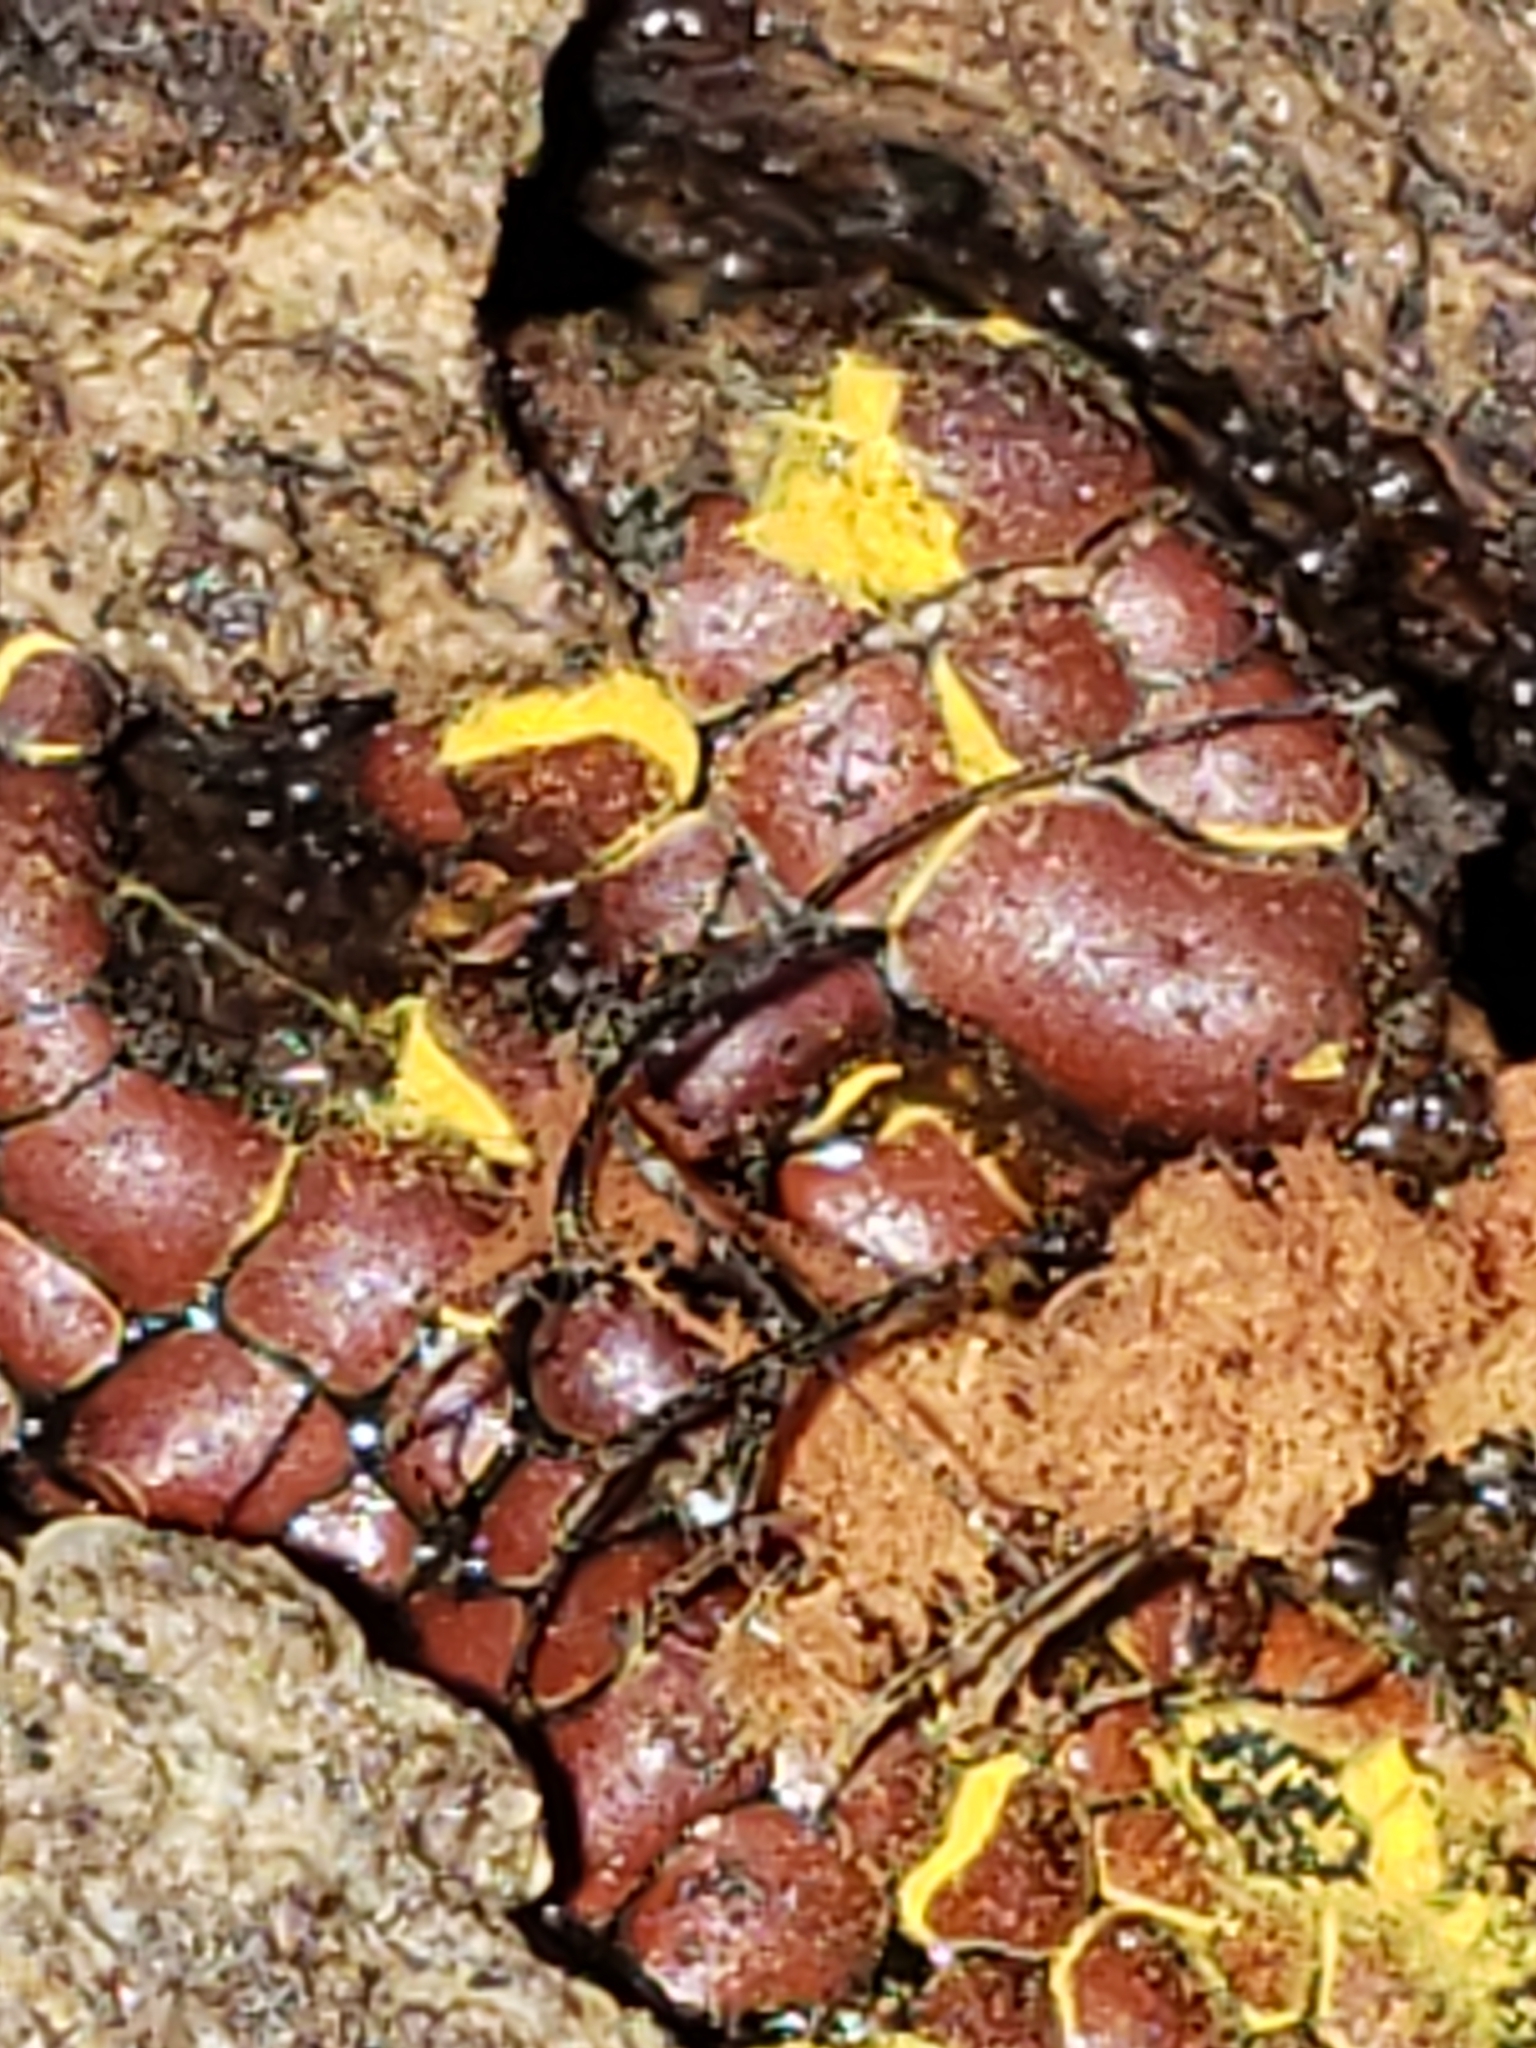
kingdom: Protozoa
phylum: Mycetozoa
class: Myxomycetes
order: Trichiales
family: Trichiaceae
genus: Perichaena
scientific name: Perichaena depressa
